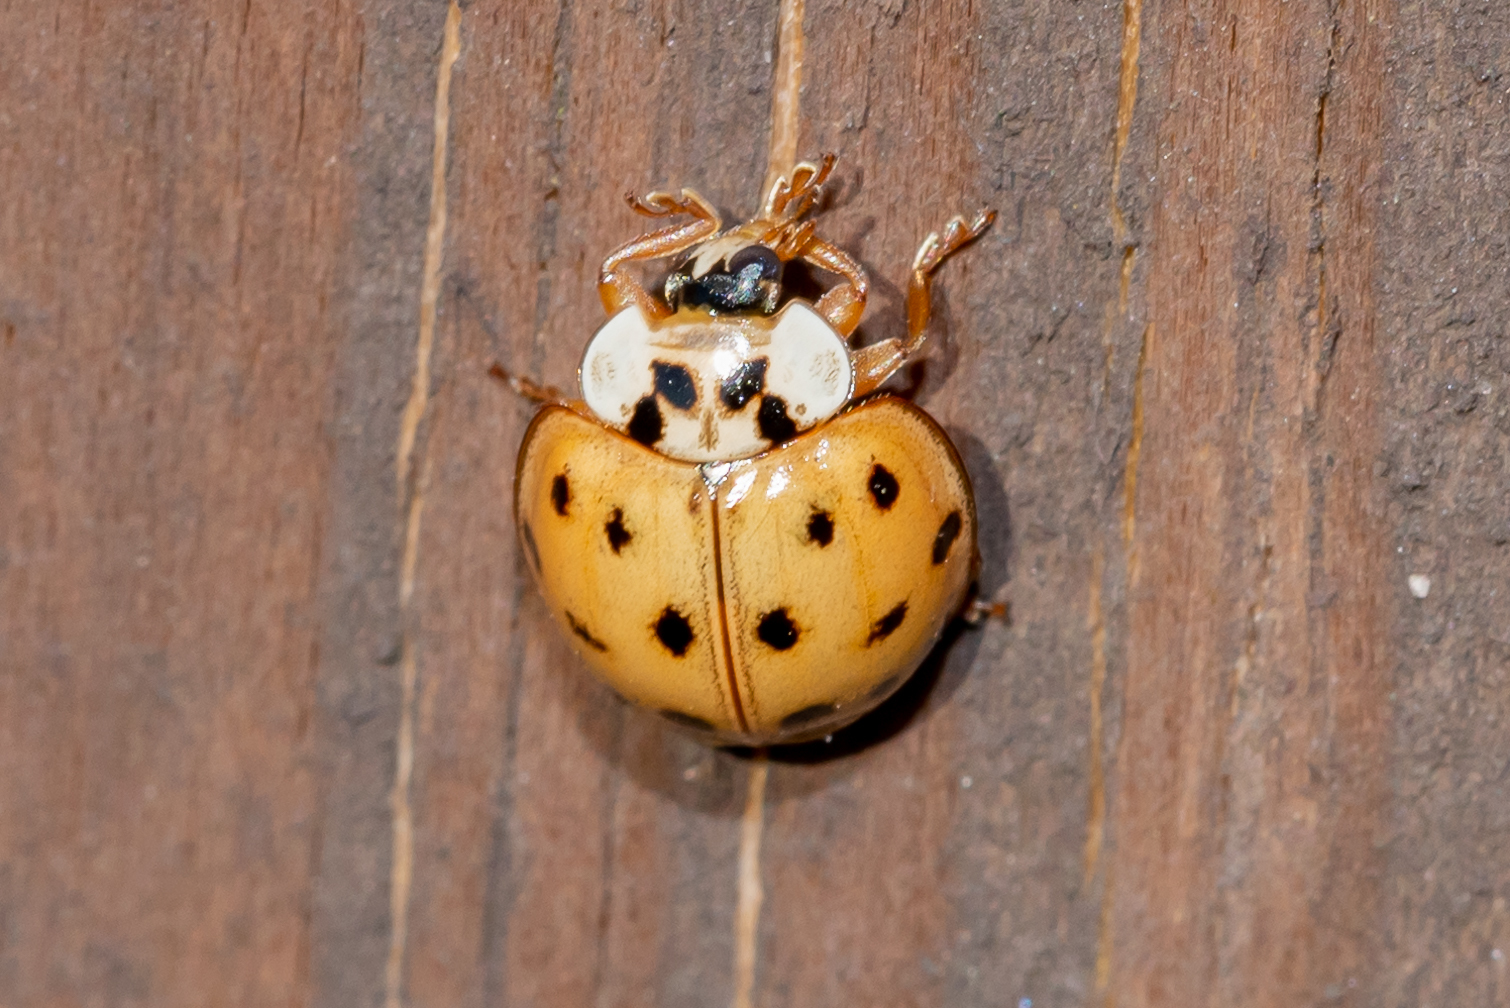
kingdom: Animalia
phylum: Arthropoda
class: Insecta
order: Coleoptera
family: Coccinellidae
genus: Harmonia
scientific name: Harmonia axyridis
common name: Harlequin ladybird
